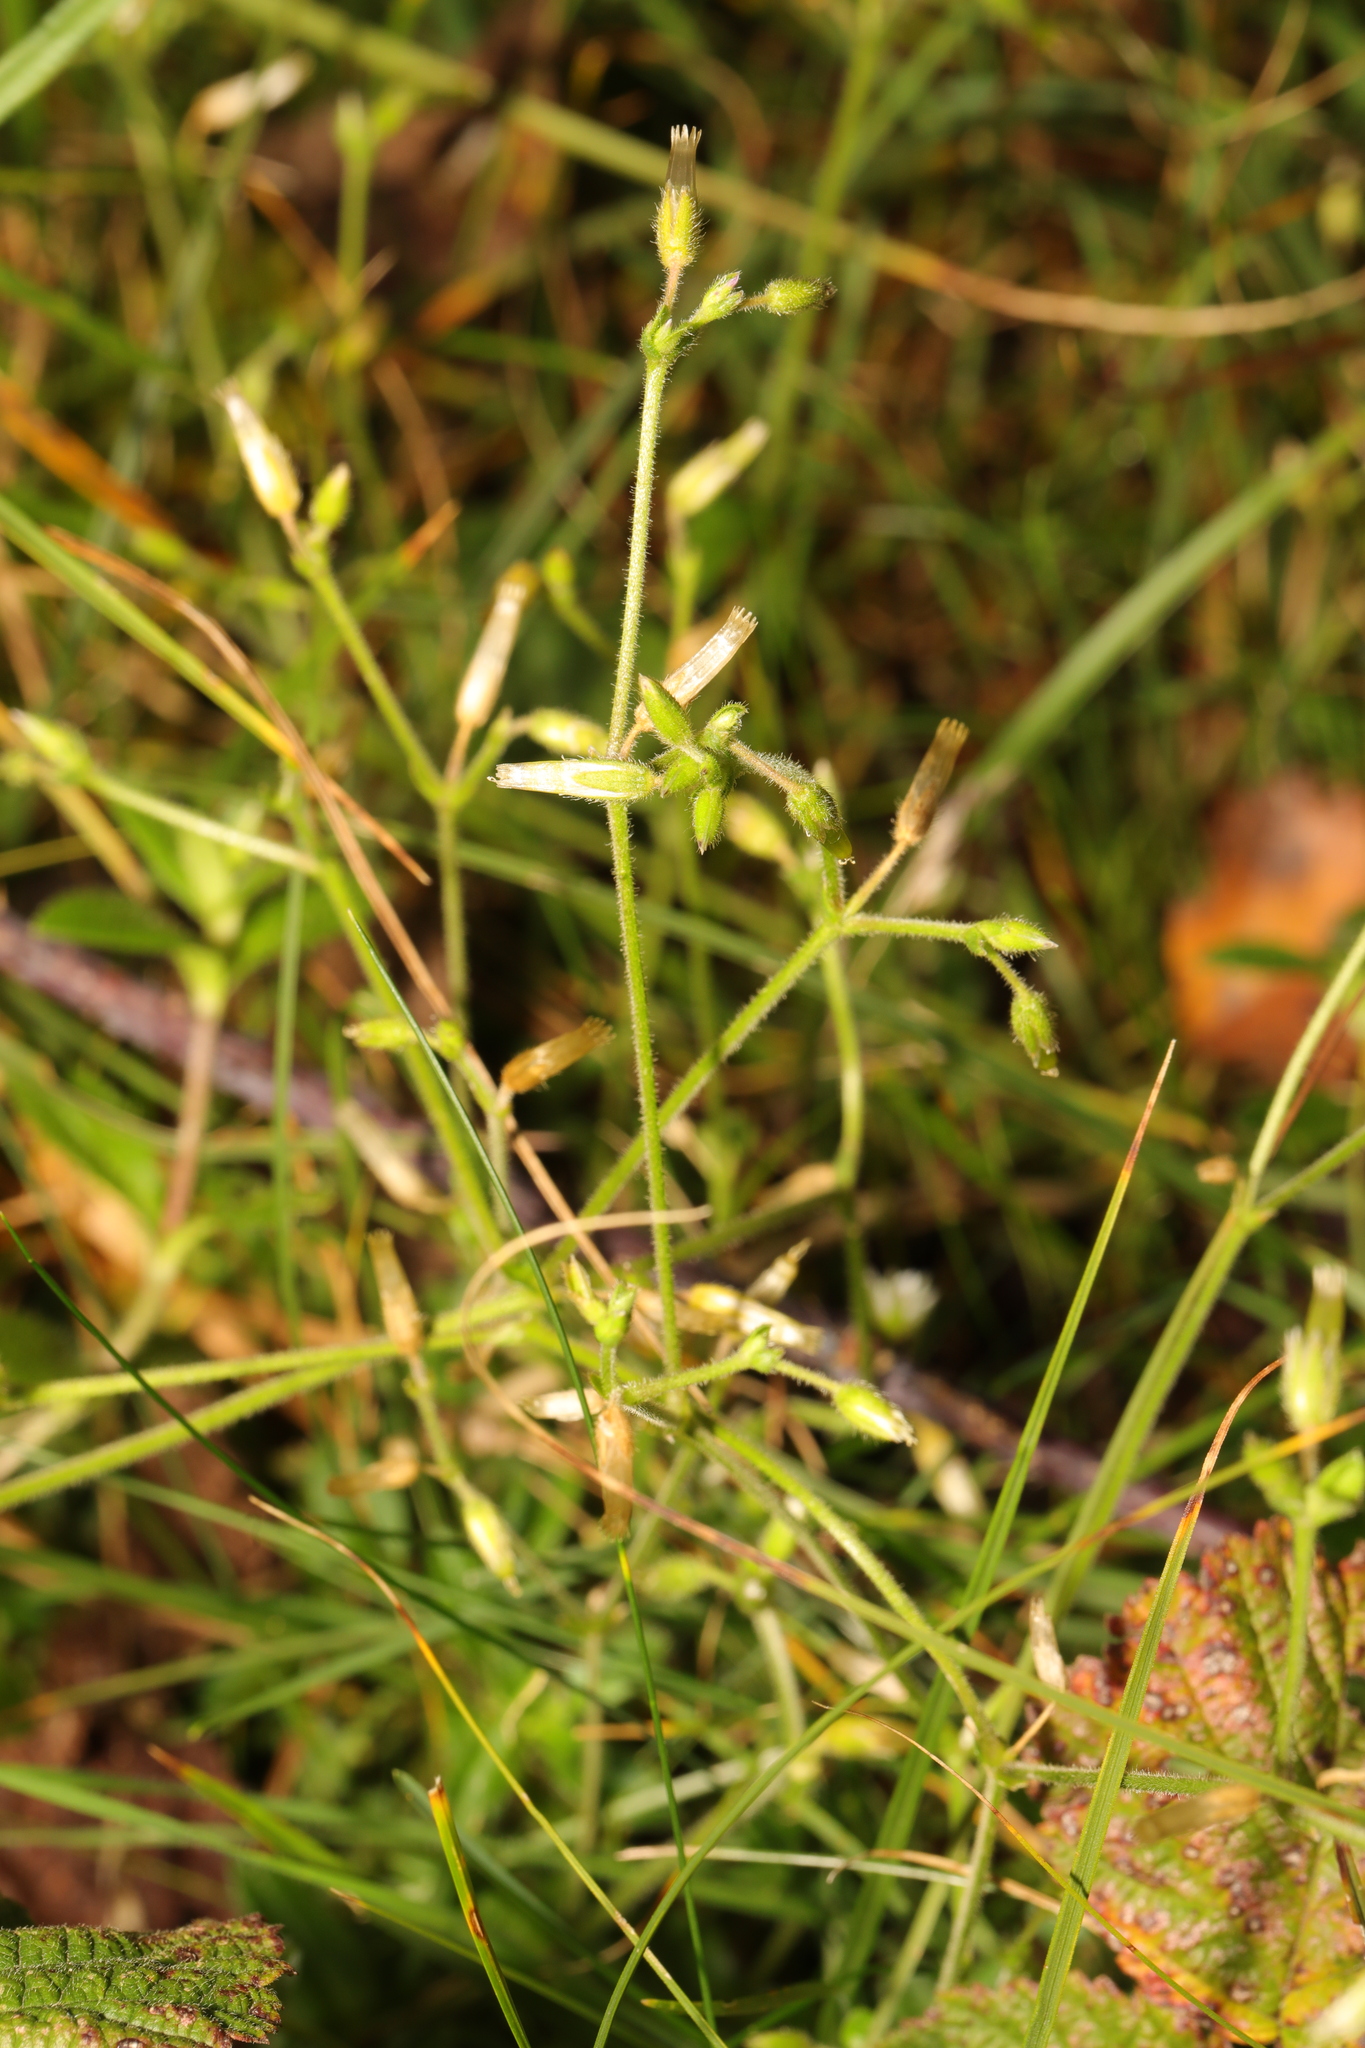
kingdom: Plantae
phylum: Tracheophyta
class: Magnoliopsida
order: Caryophyllales
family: Caryophyllaceae
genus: Cerastium
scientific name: Cerastium fontanum
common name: Common mouse-ear
